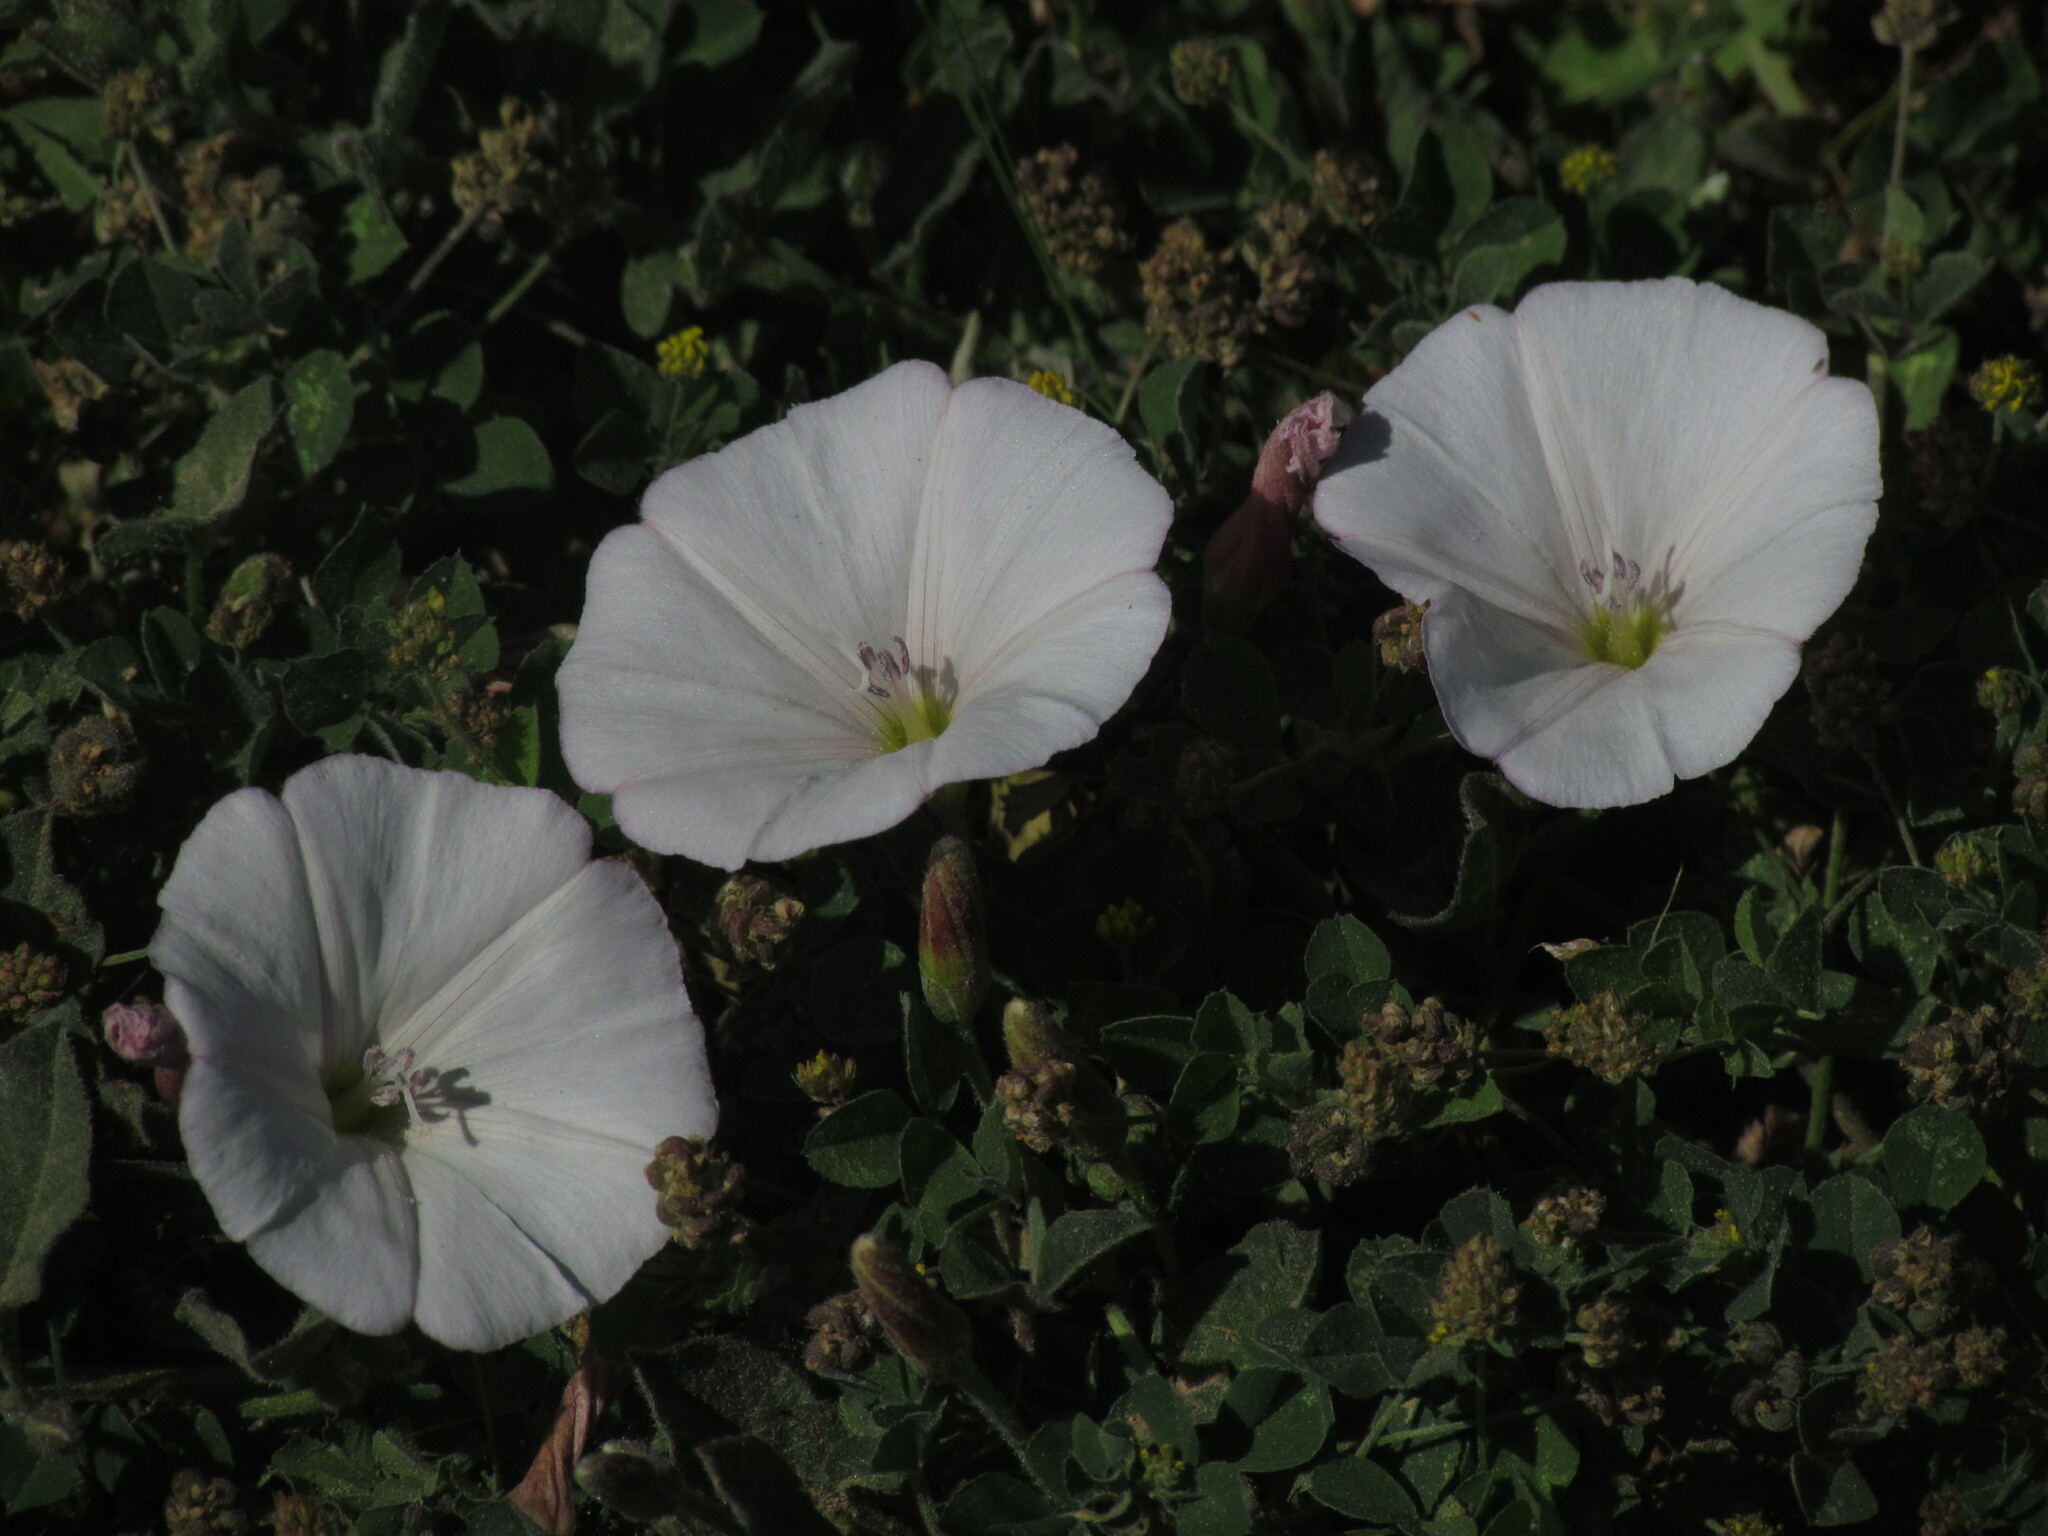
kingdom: Plantae
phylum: Tracheophyta
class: Magnoliopsida
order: Solanales
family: Convolvulaceae
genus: Convolvulus
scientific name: Convolvulus arvensis
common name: Field bindweed
